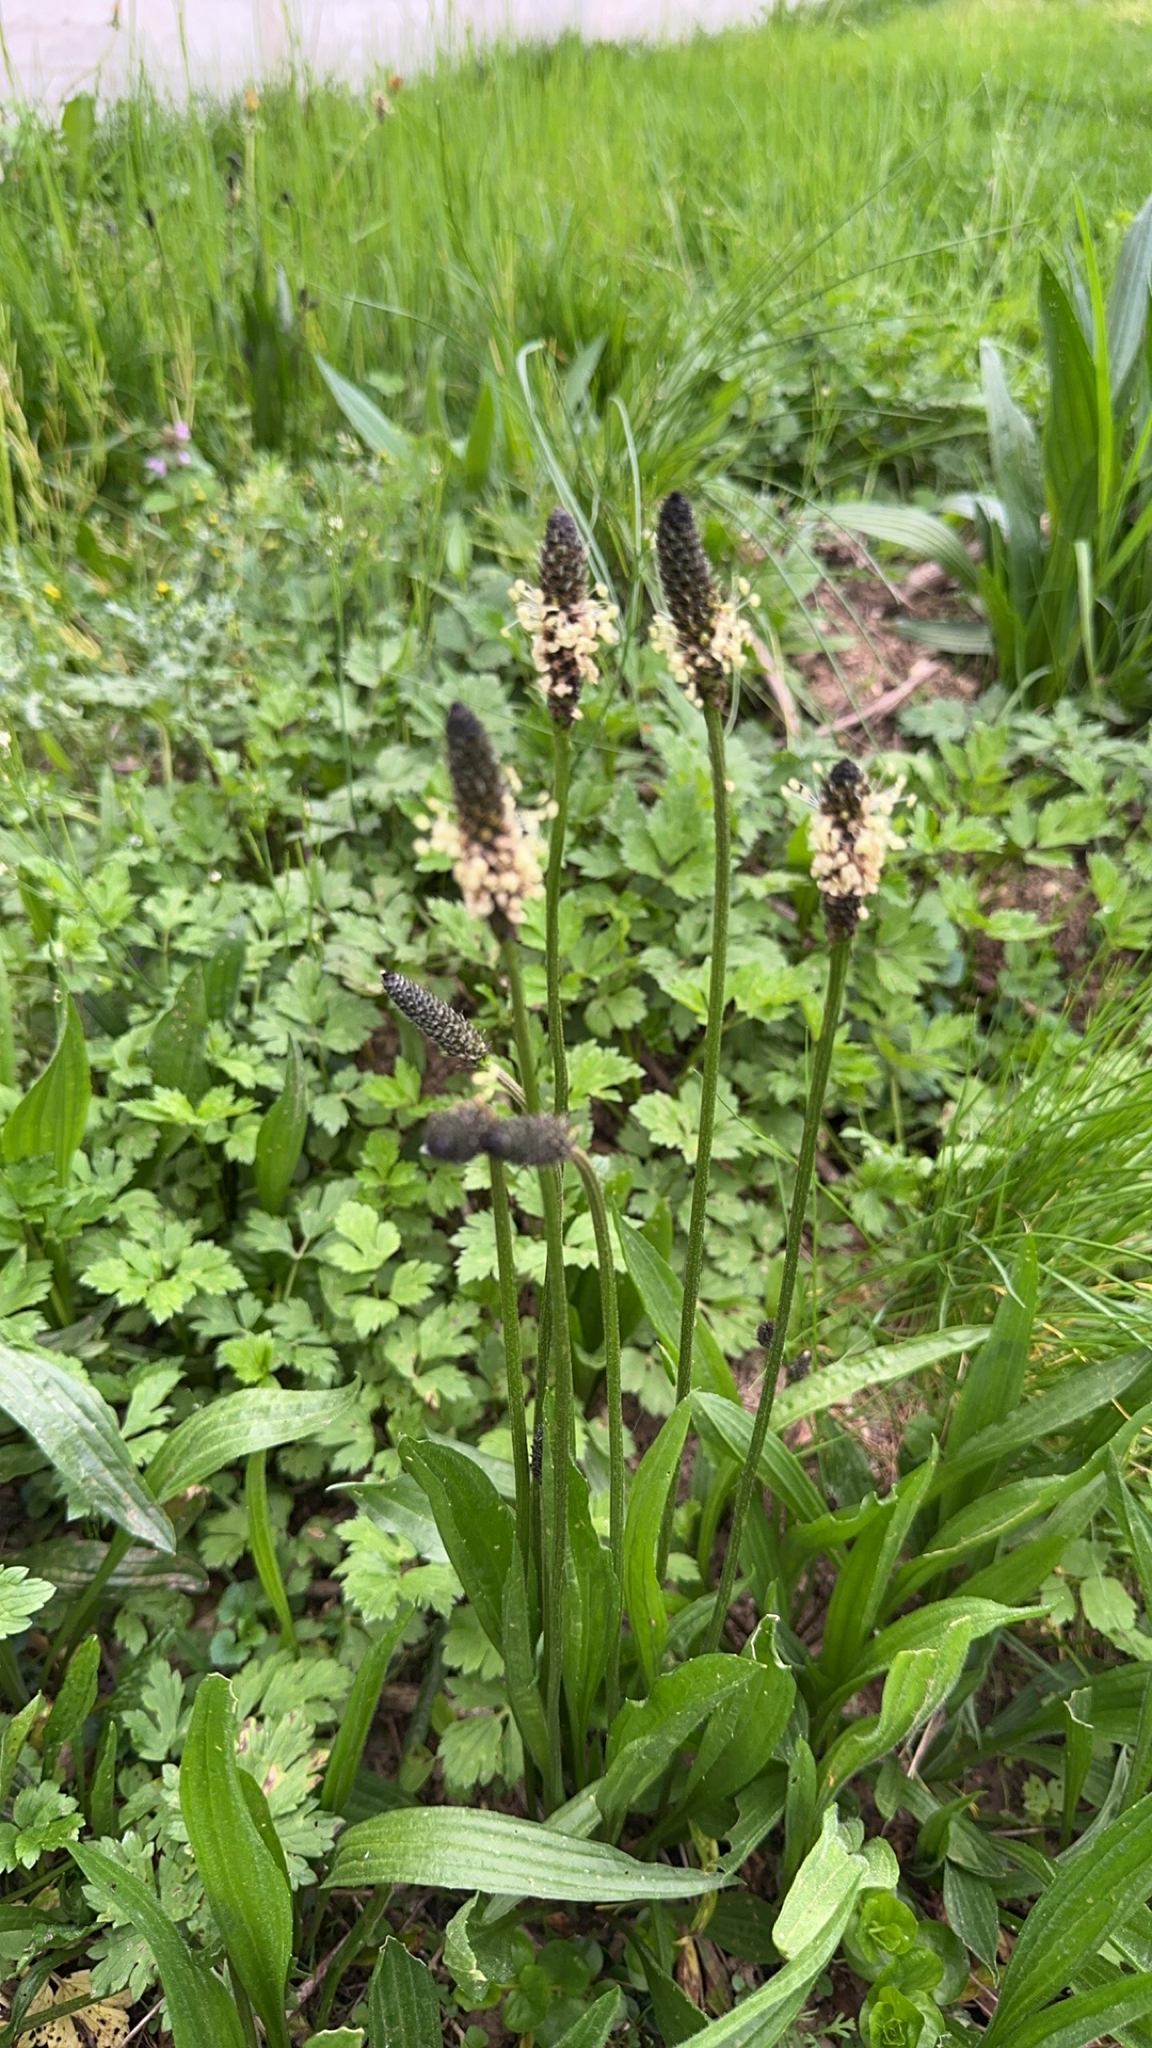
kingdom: Plantae
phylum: Tracheophyta
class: Magnoliopsida
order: Lamiales
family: Plantaginaceae
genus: Plantago
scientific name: Plantago lanceolata
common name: Ribwort plantain
